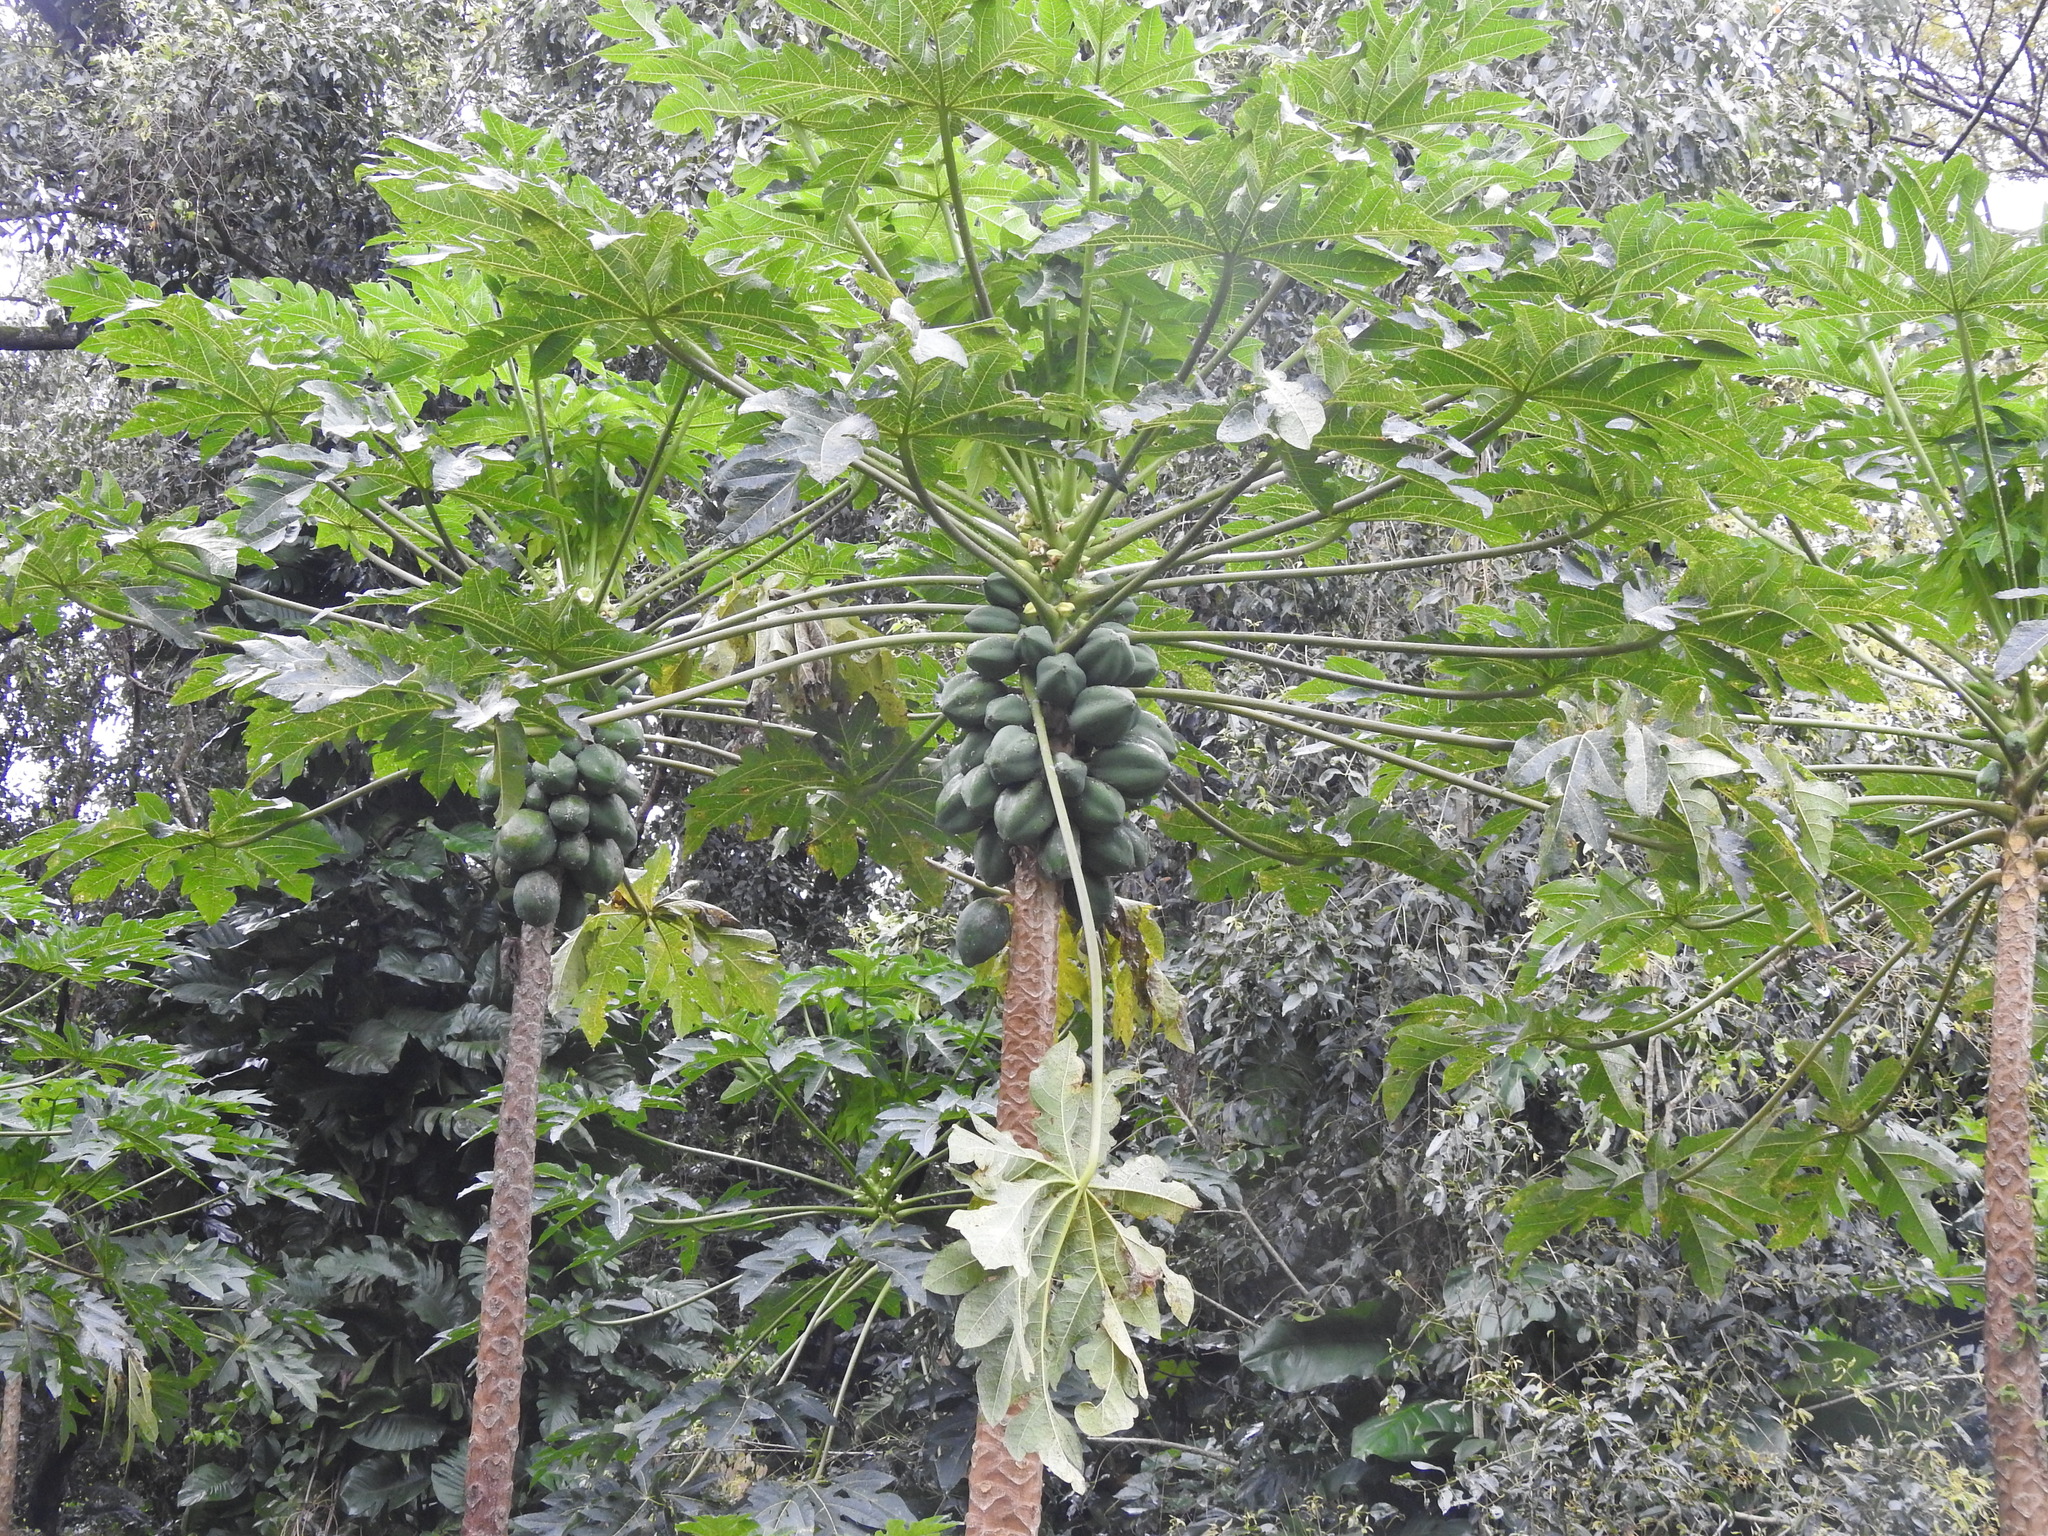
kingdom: Plantae
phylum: Tracheophyta
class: Magnoliopsida
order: Brassicales
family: Caricaceae
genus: Carica
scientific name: Carica papaya
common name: Papaya
